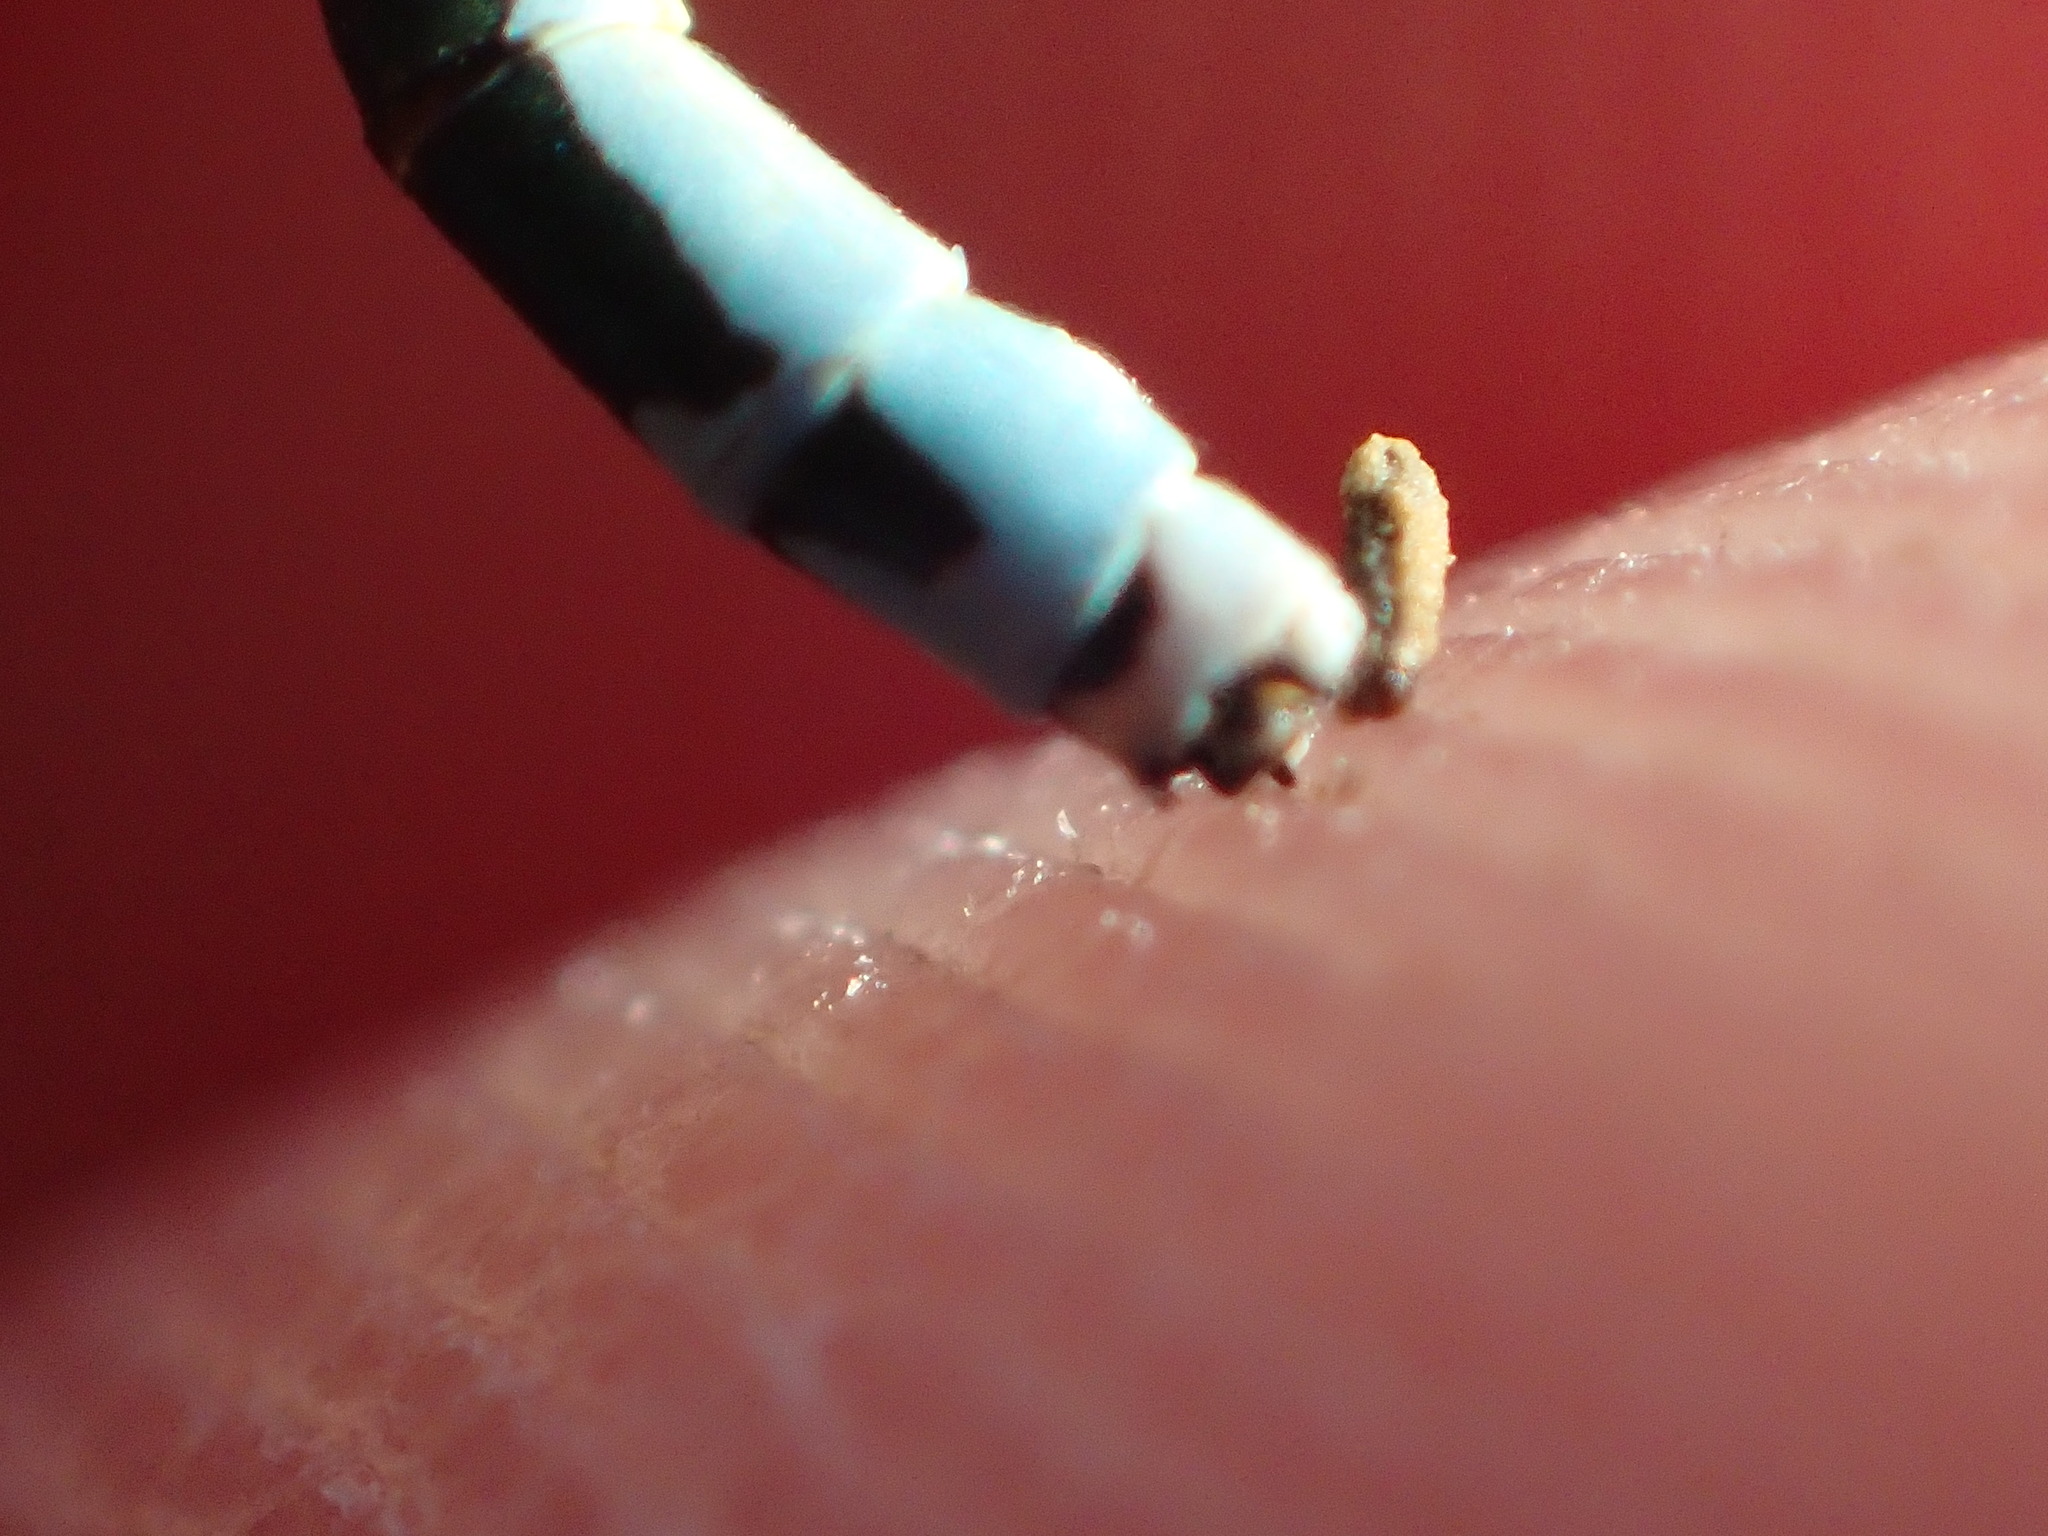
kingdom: Animalia
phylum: Arthropoda
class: Insecta
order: Odonata
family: Coenagrionidae
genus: Nehalennia
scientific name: Nehalennia irene
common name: Sedge sprite
